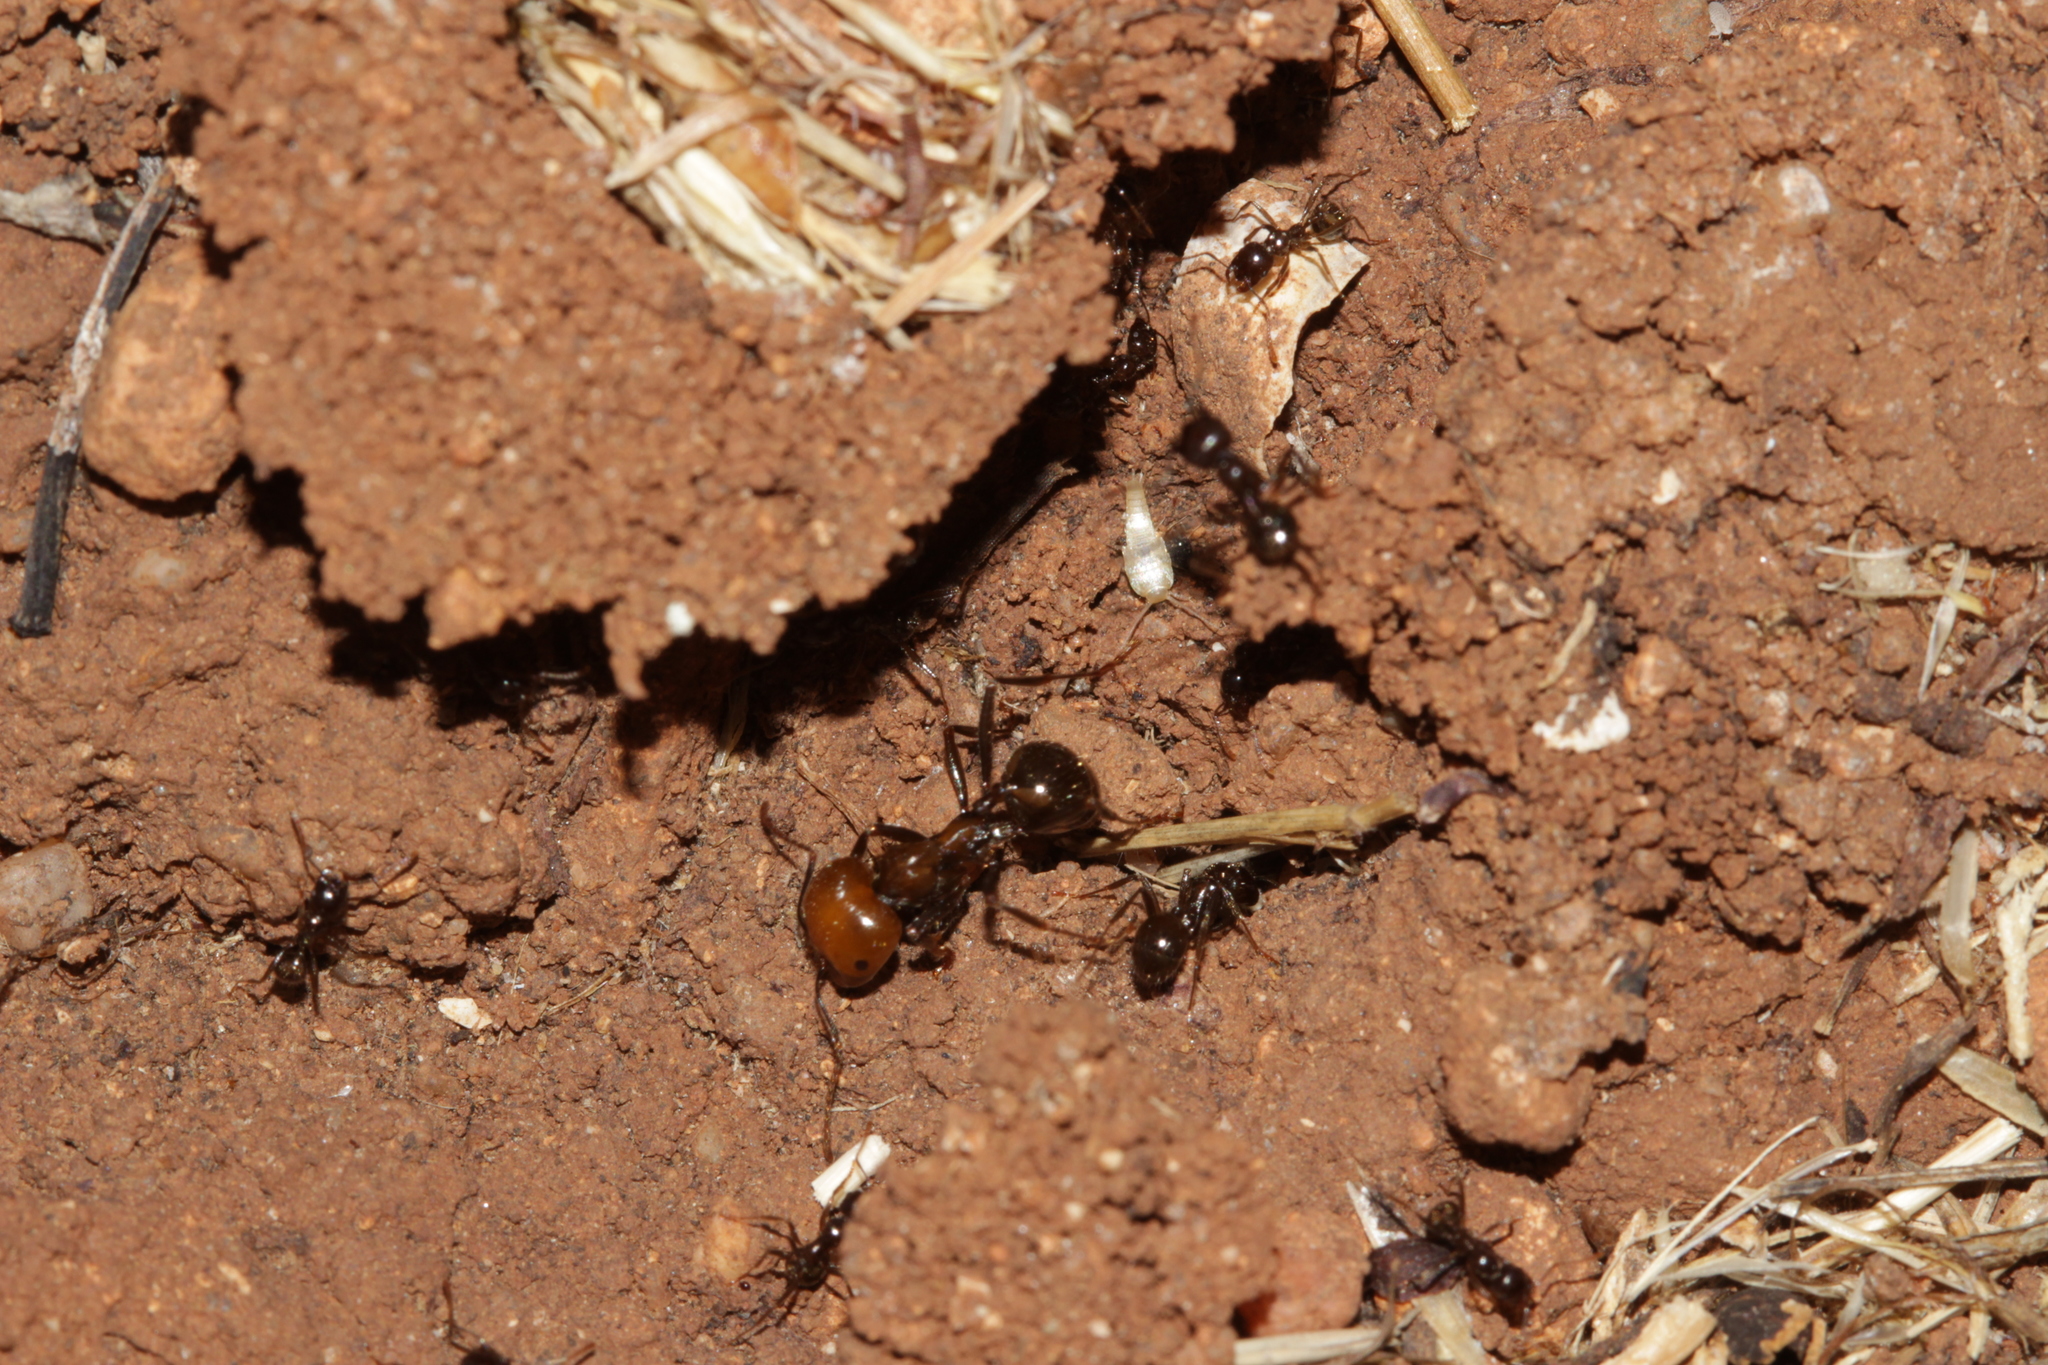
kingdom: Animalia
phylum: Arthropoda
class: Insecta
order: Hymenoptera
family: Formicidae
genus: Messor
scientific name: Messor barbarus
